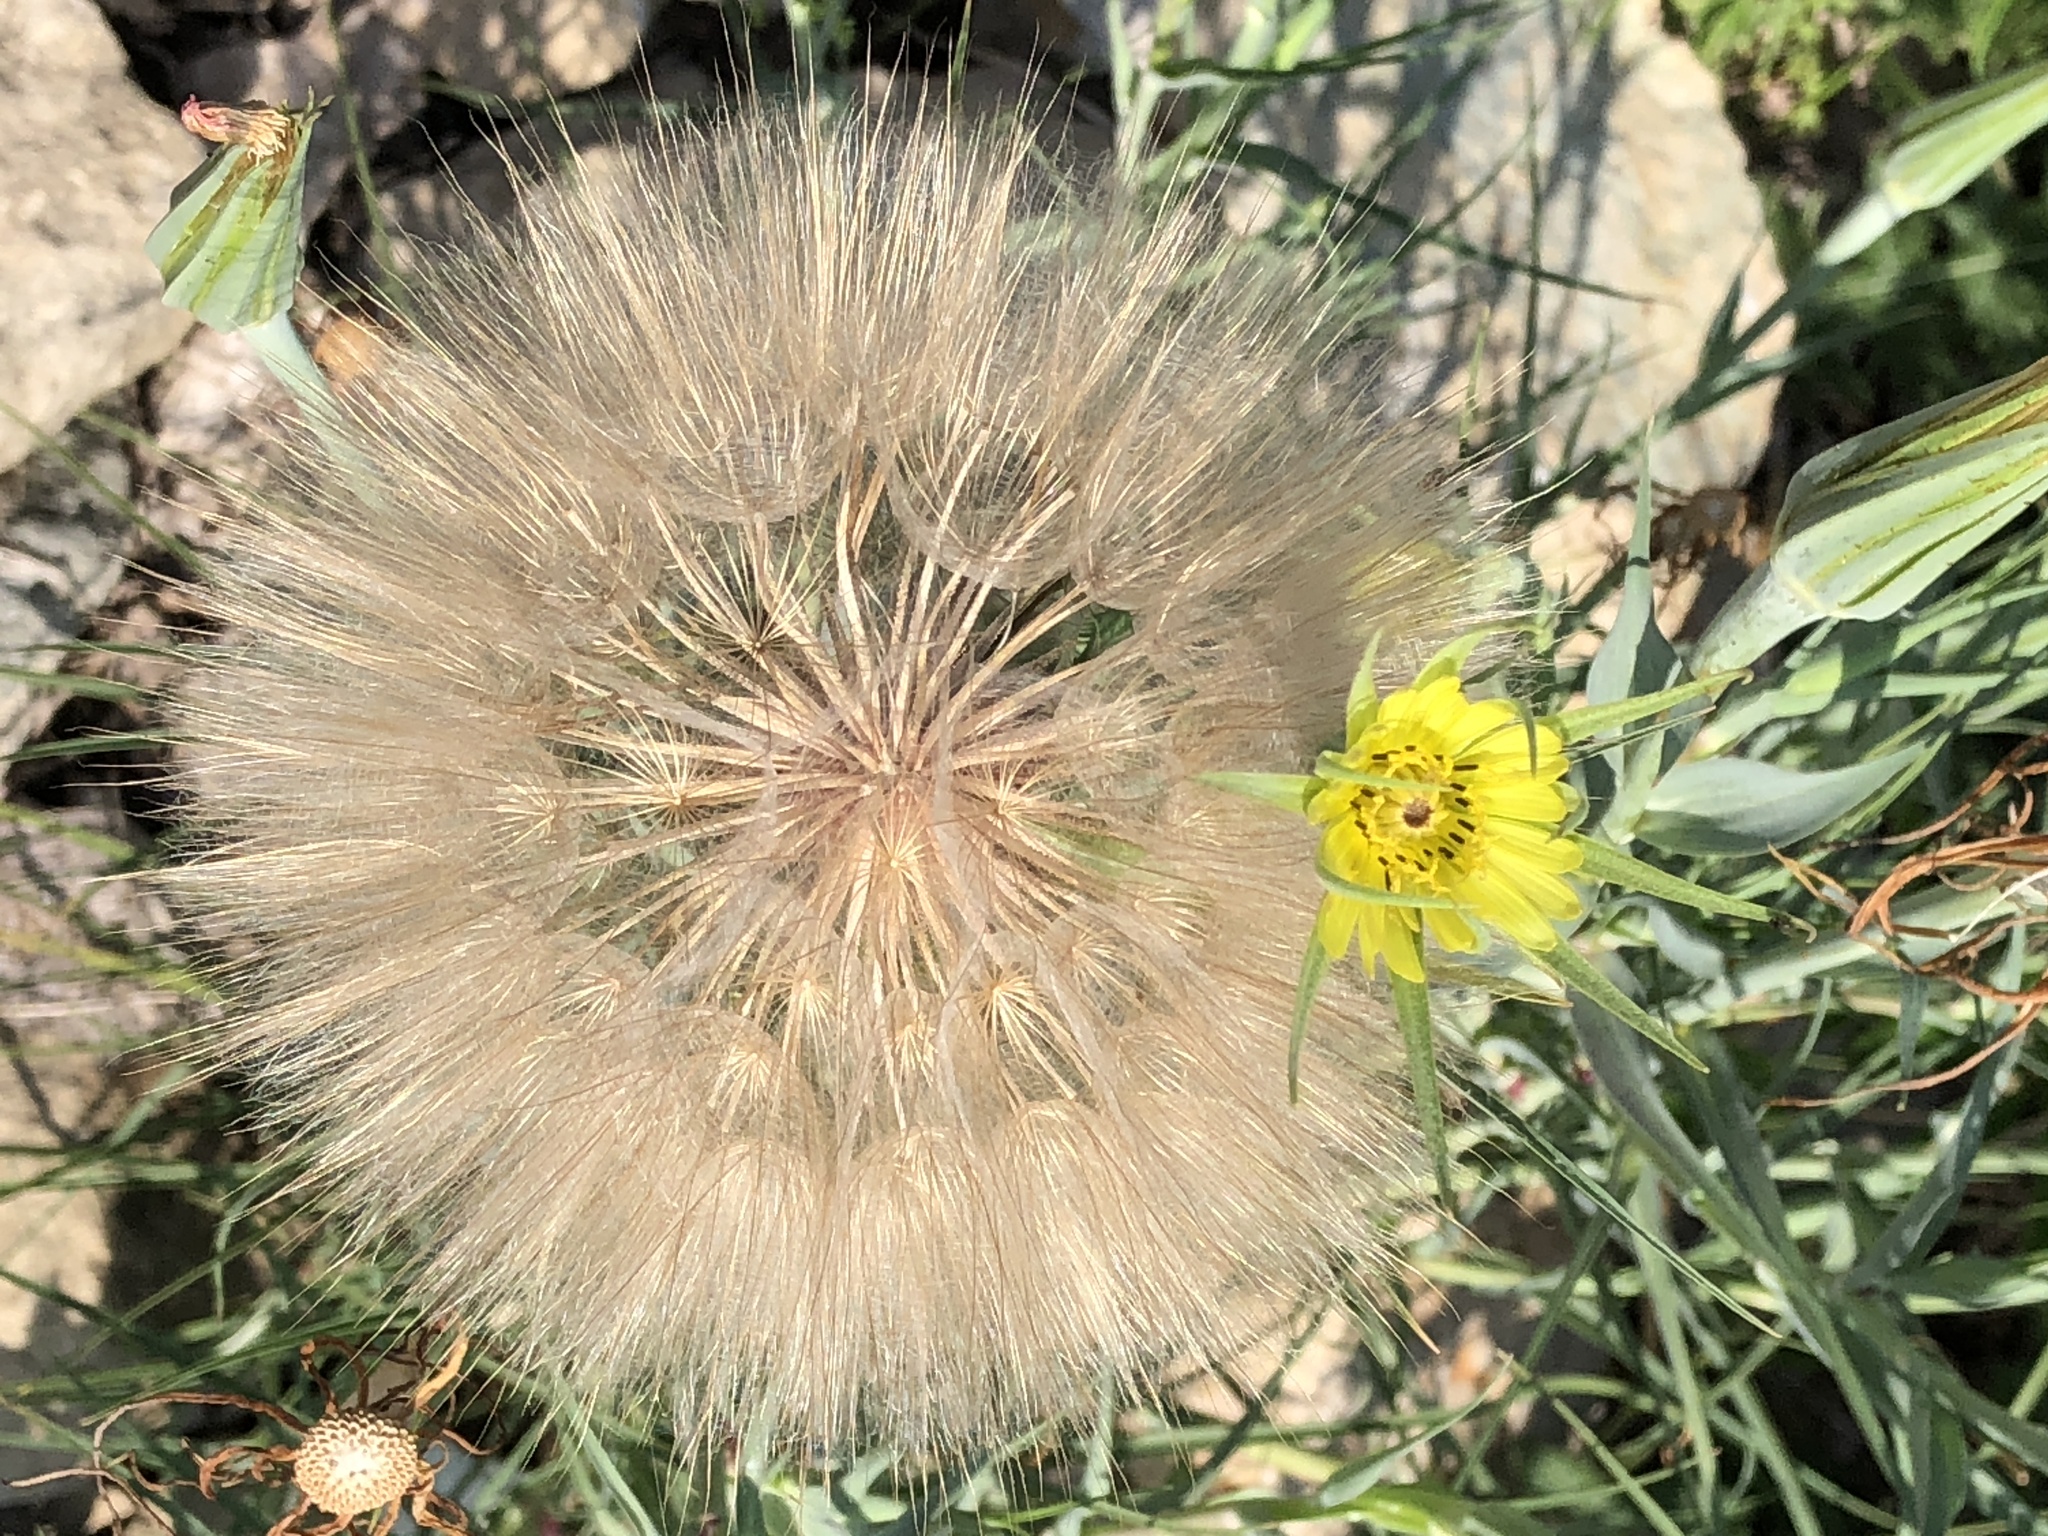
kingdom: Plantae
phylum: Tracheophyta
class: Magnoliopsida
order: Asterales
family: Asteraceae
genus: Tragopogon
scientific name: Tragopogon dubius
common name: Yellow salsify
